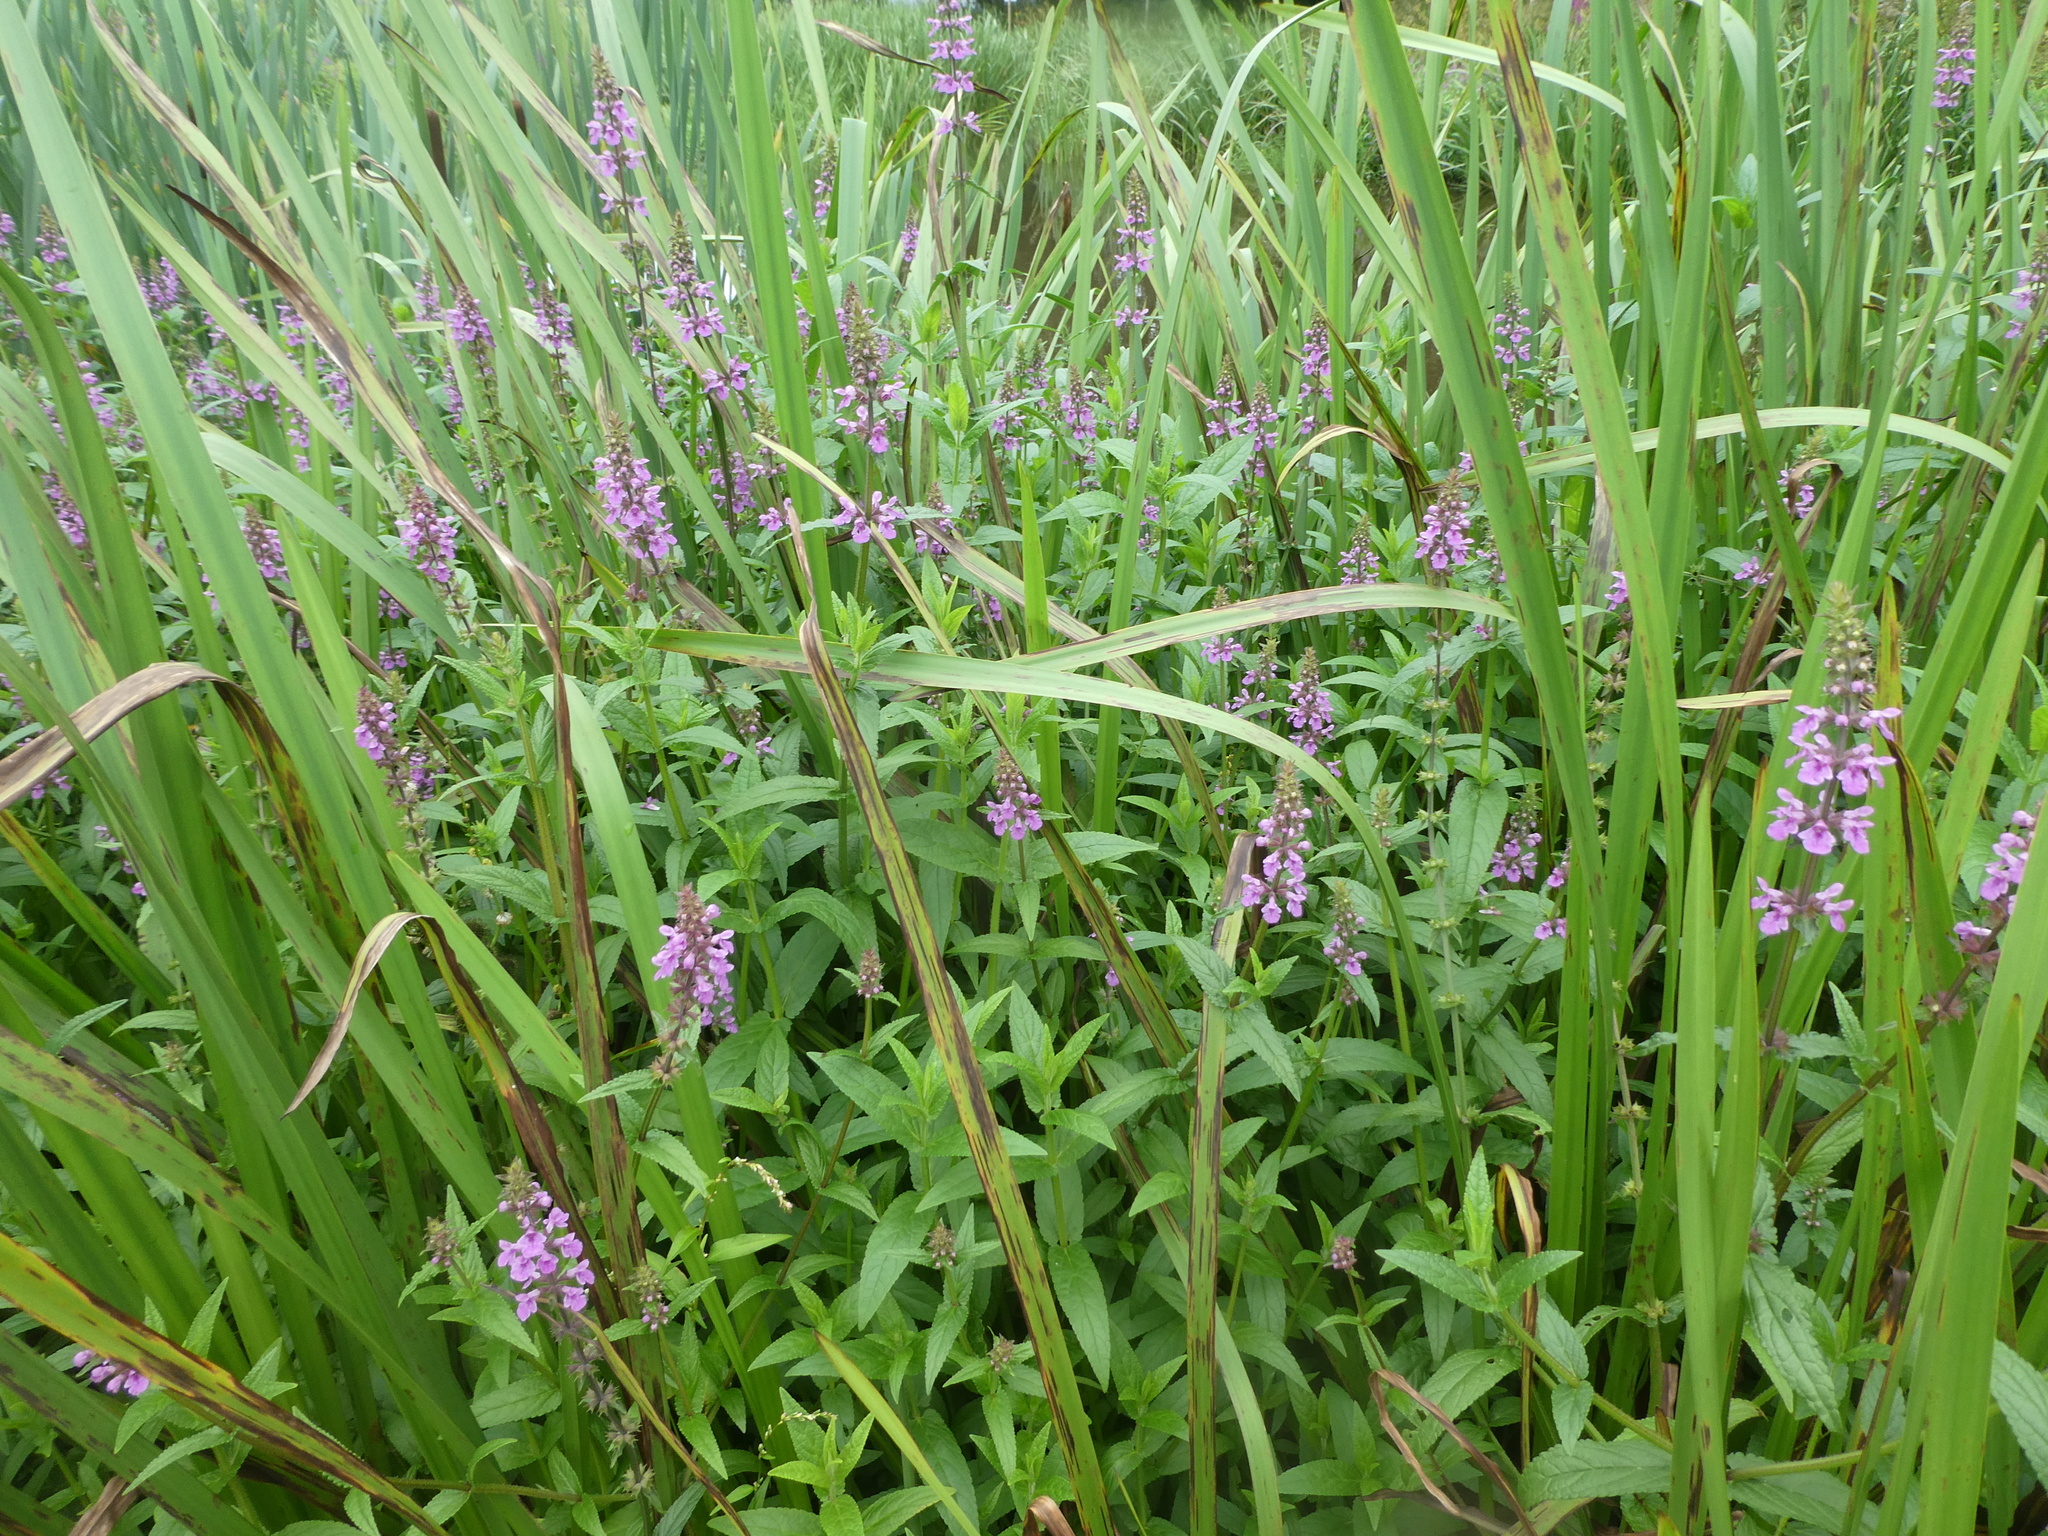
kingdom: Plantae
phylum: Tracheophyta
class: Magnoliopsida
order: Lamiales
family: Lamiaceae
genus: Stachys
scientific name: Stachys palustris
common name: Marsh woundwort
